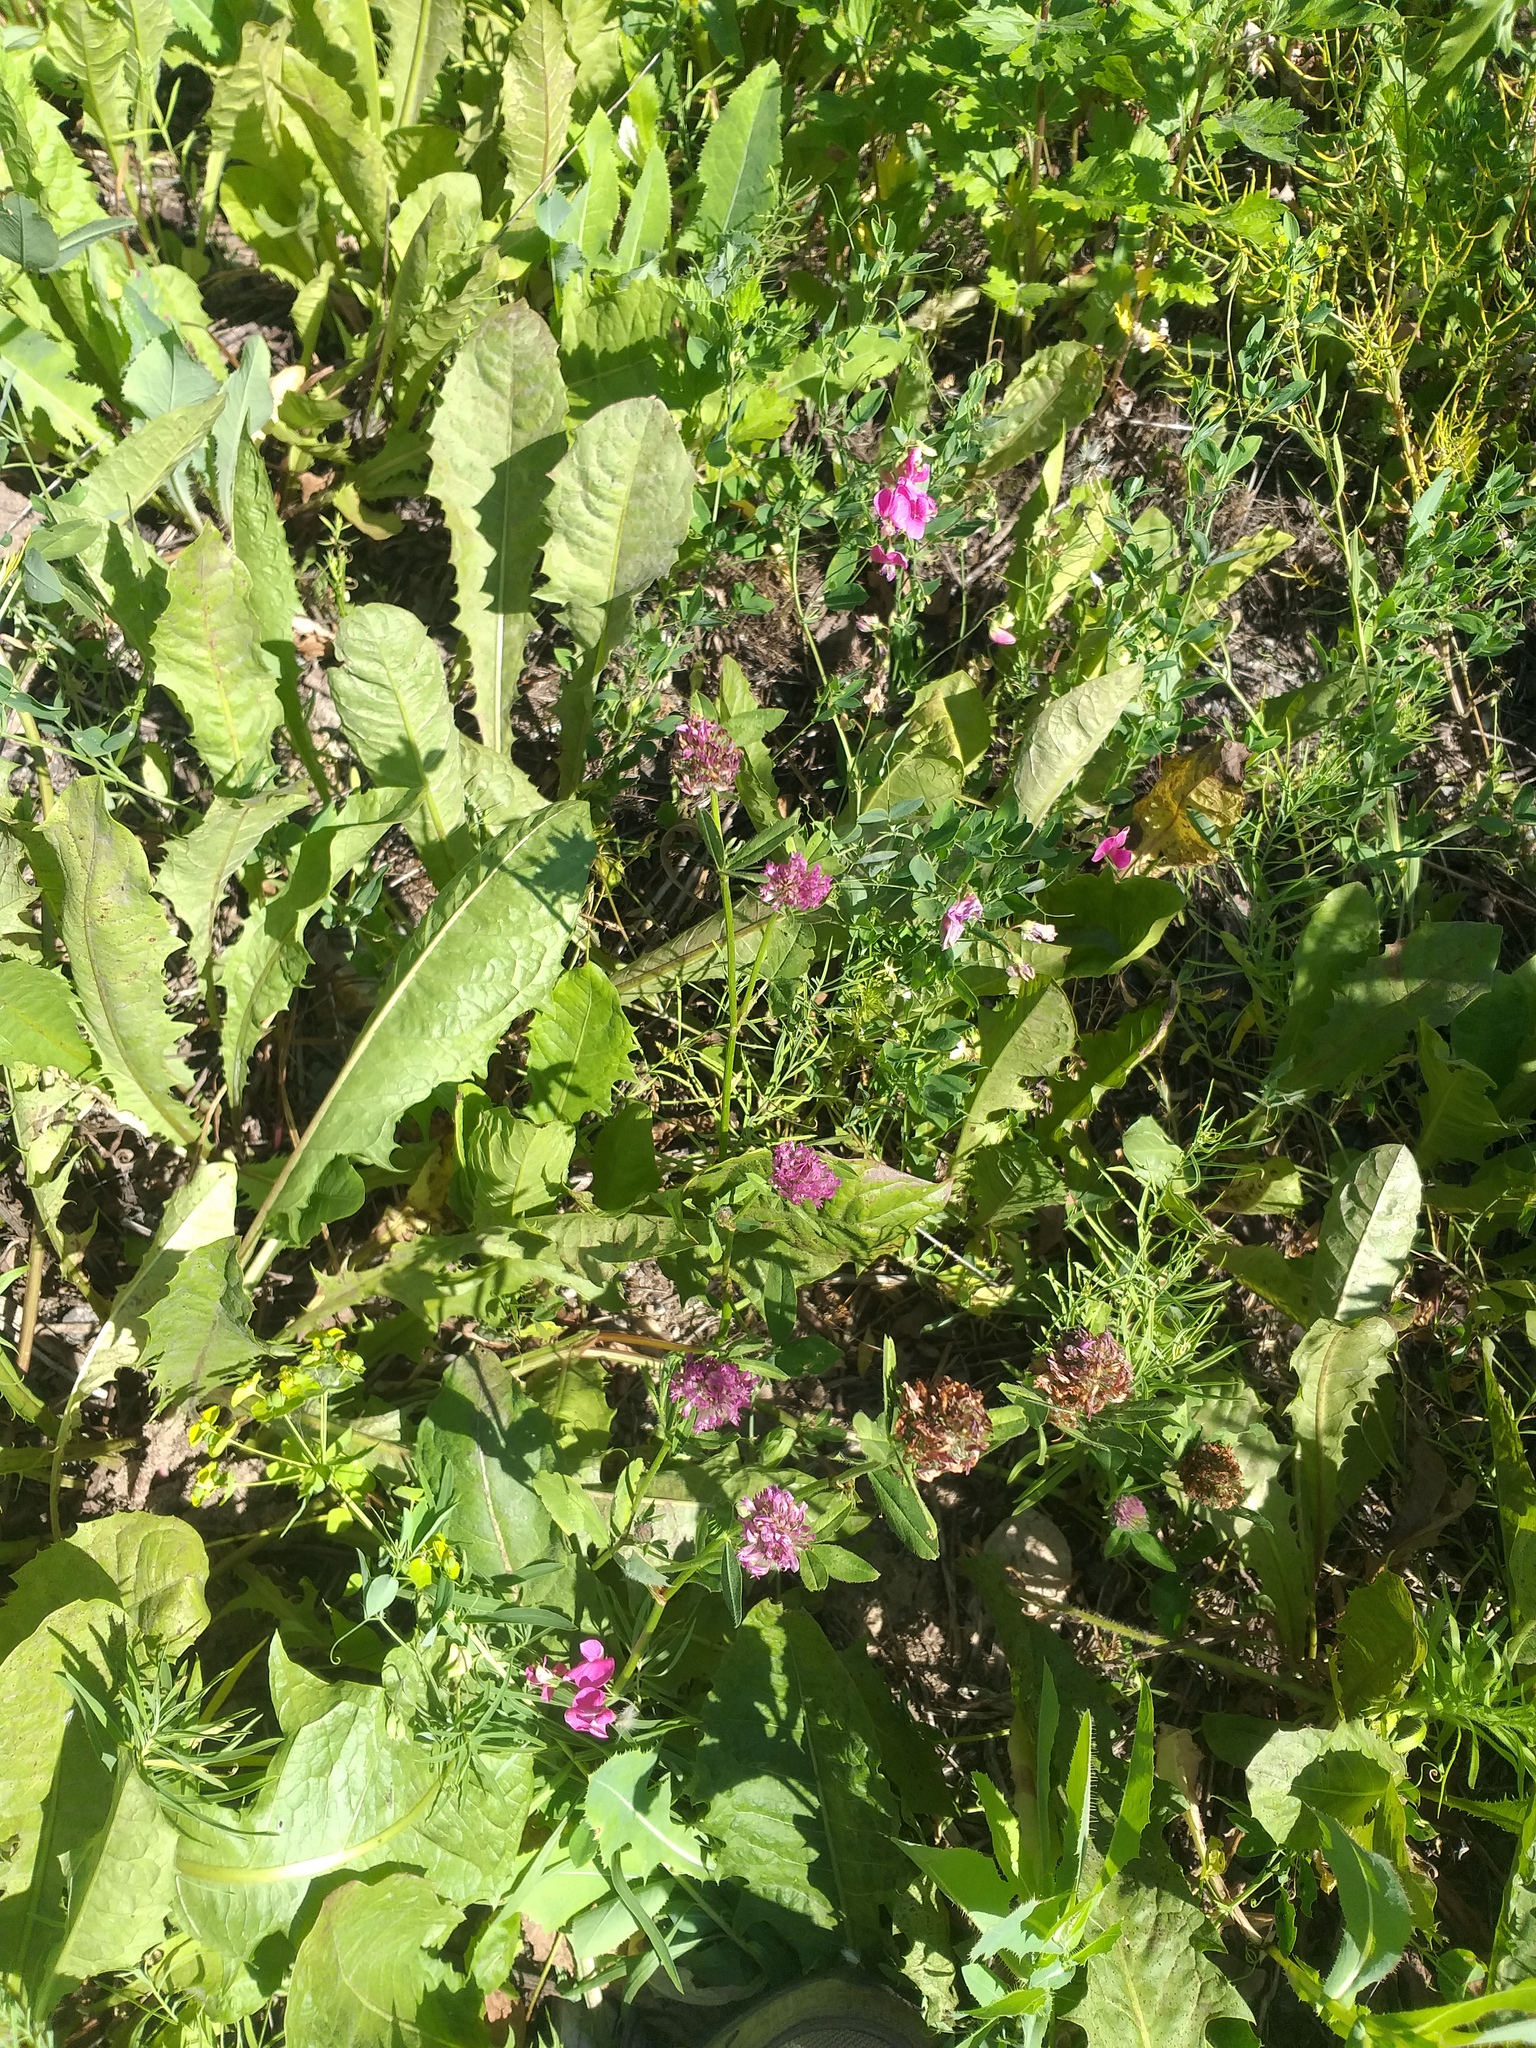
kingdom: Plantae
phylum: Tracheophyta
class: Magnoliopsida
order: Fabales
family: Fabaceae
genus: Trifolium
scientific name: Trifolium pratense
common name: Red clover
